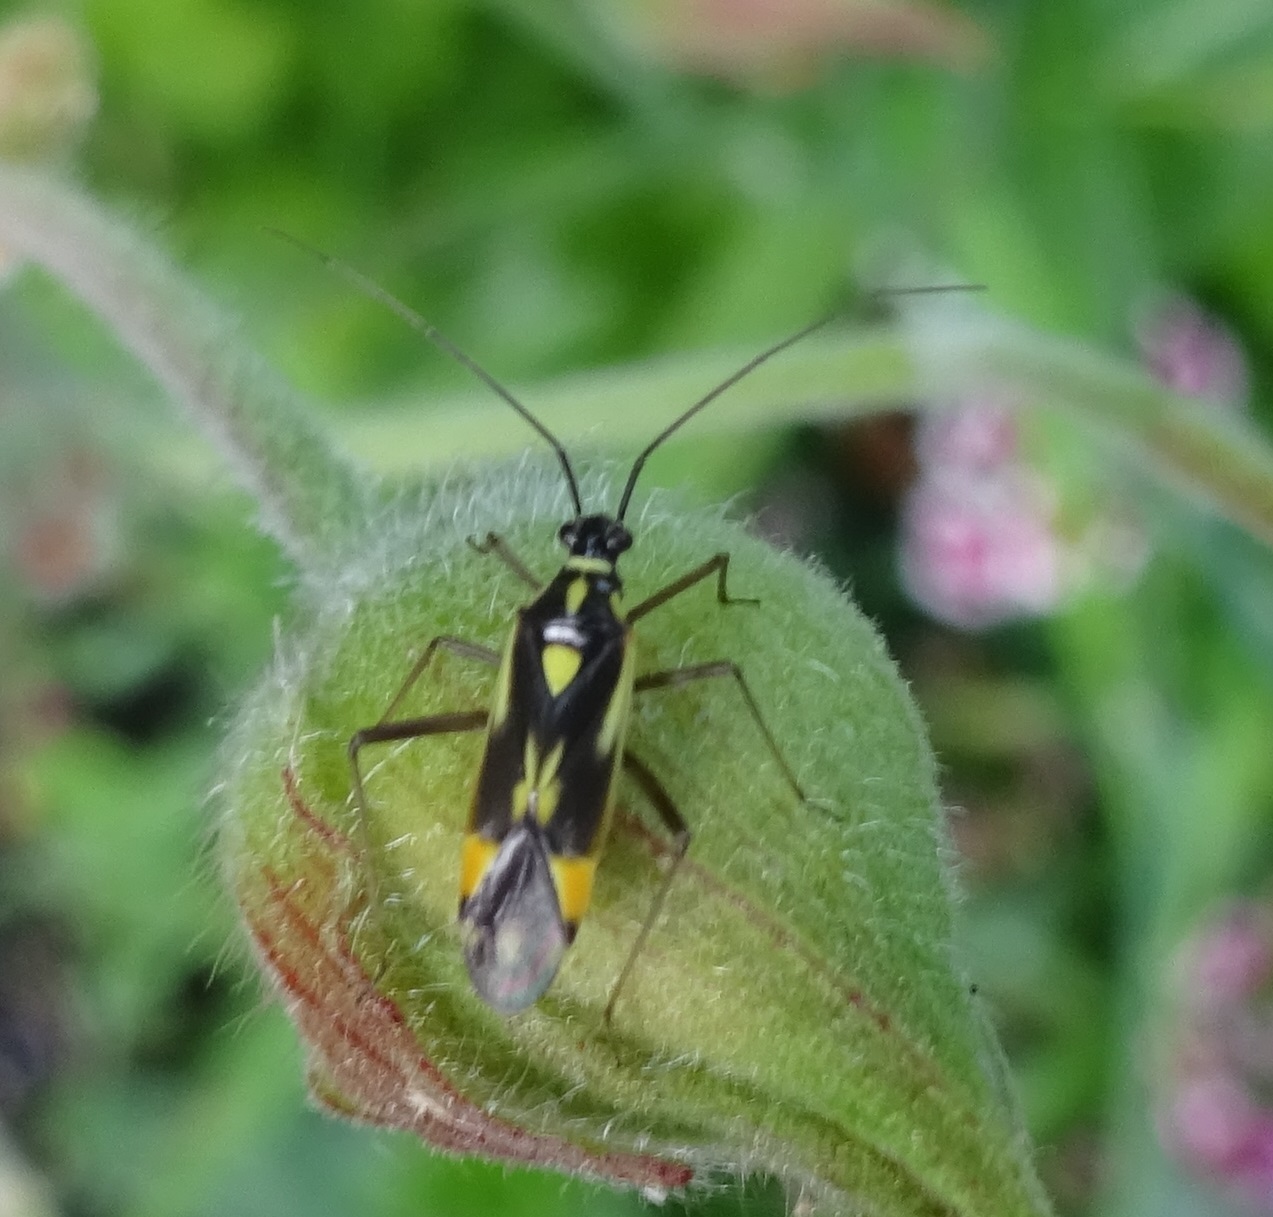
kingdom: Animalia
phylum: Arthropoda
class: Insecta
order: Hemiptera
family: Miridae
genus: Grypocoris
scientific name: Grypocoris stysi
